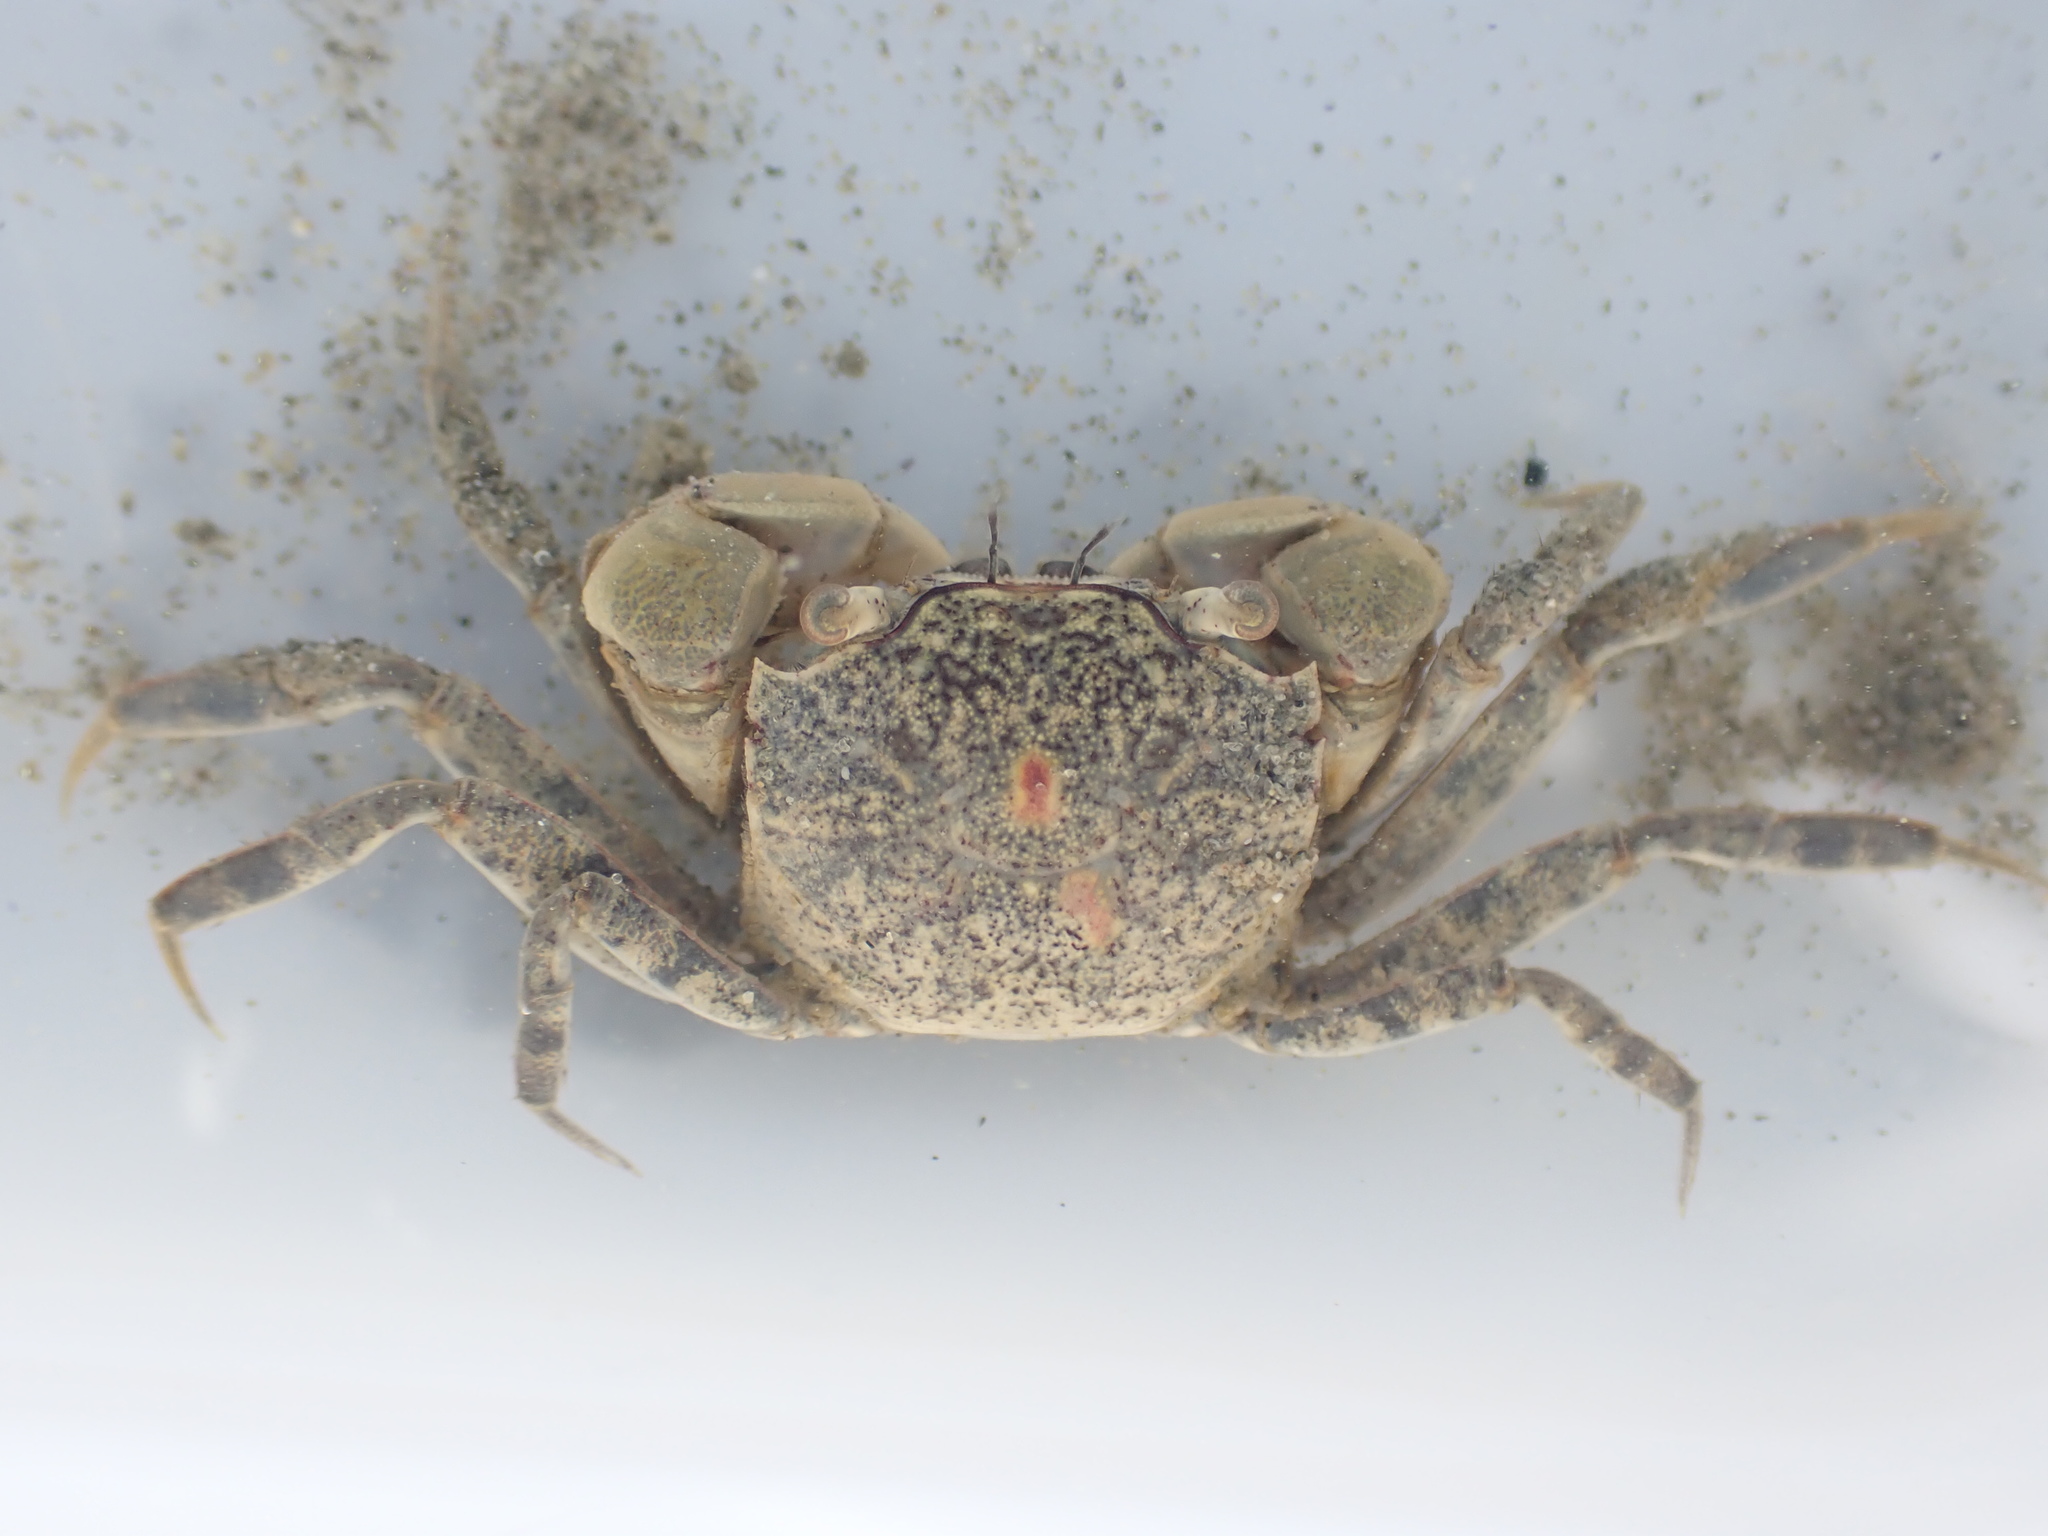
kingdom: Animalia
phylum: Arthropoda
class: Malacostraca
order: Decapoda
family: Varunidae
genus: Austrohelice
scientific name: Austrohelice crassa
